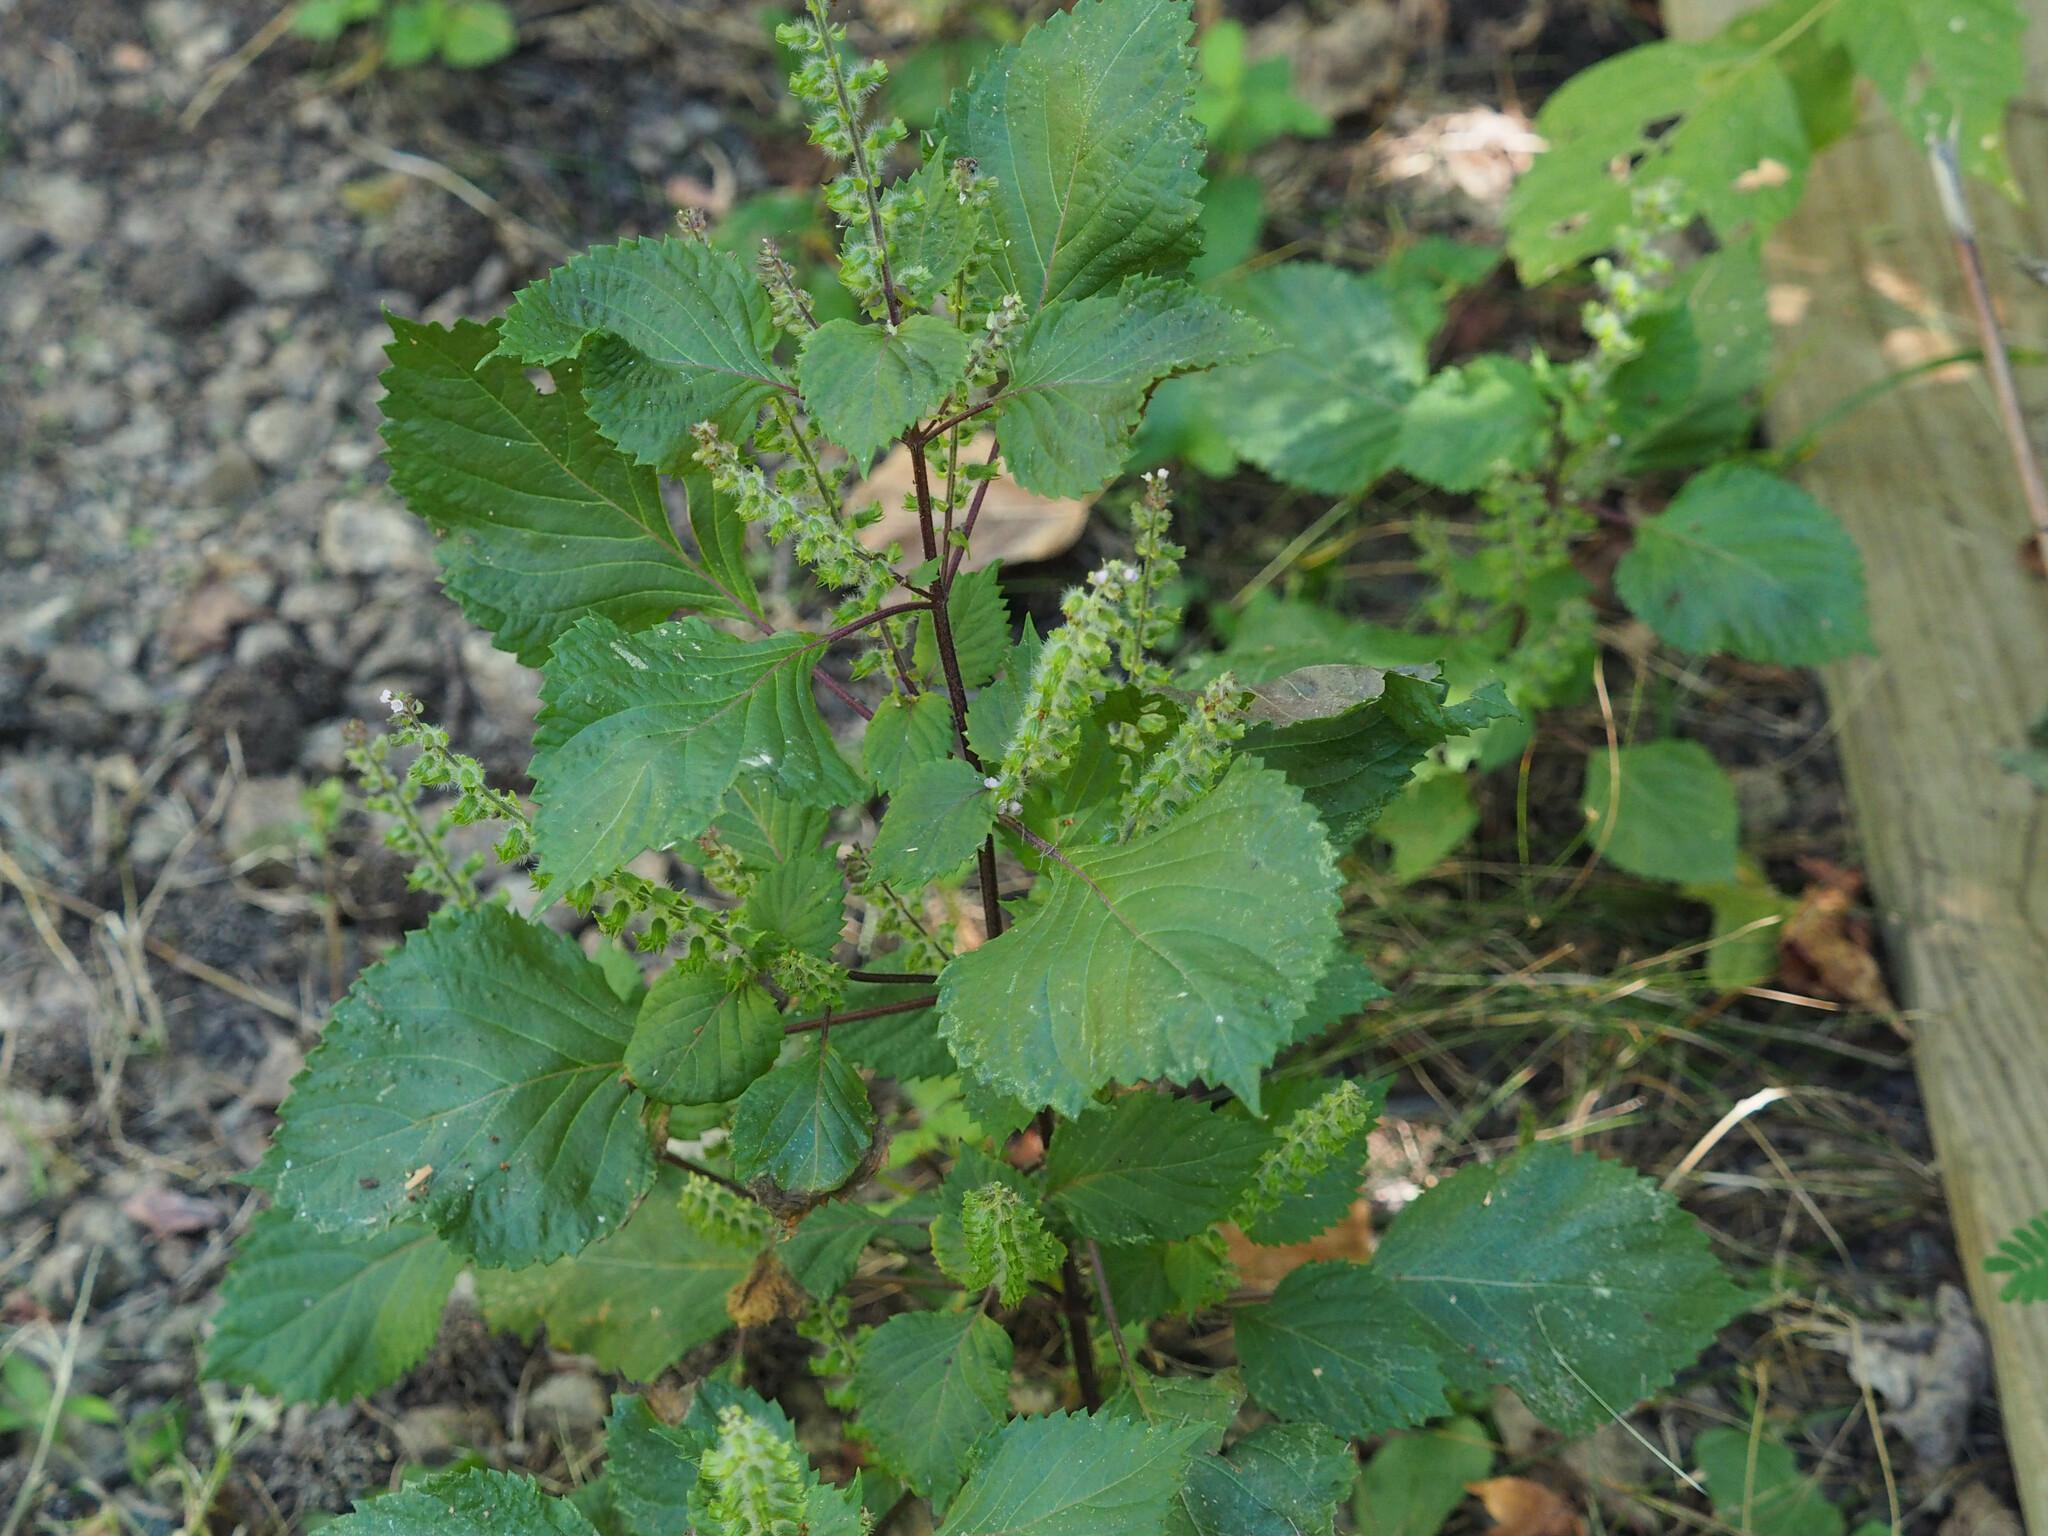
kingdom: Plantae
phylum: Tracheophyta
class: Magnoliopsida
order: Lamiales
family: Lamiaceae
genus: Perilla
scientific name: Perilla frutescens
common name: Perilla
